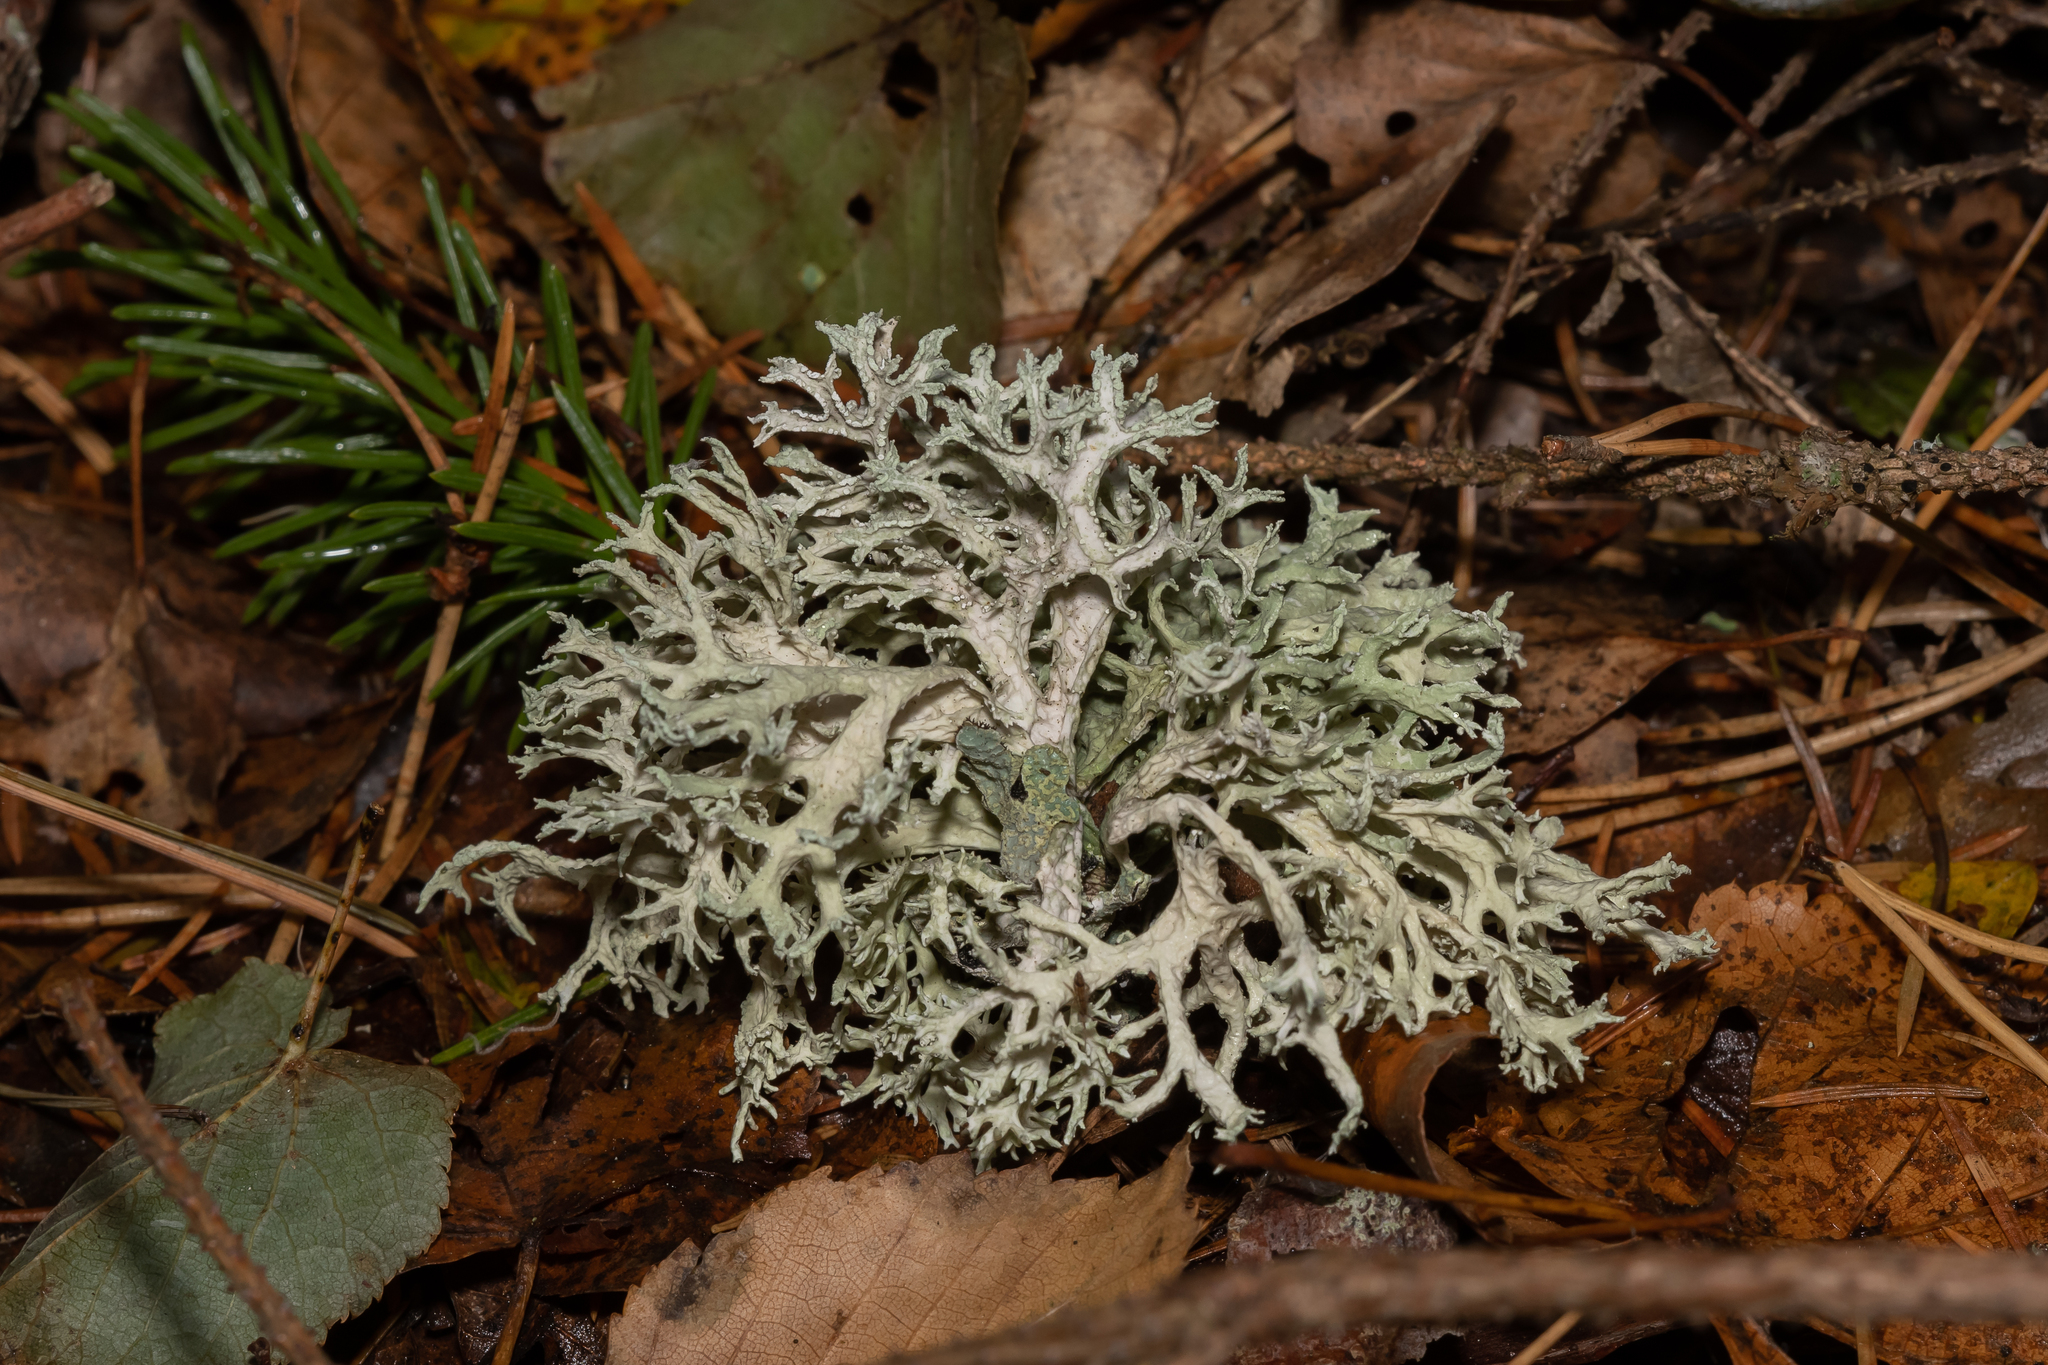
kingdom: Fungi
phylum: Ascomycota
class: Lecanoromycetes
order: Lecanorales
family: Parmeliaceae
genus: Evernia
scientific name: Evernia prunastri
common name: Oak moss
